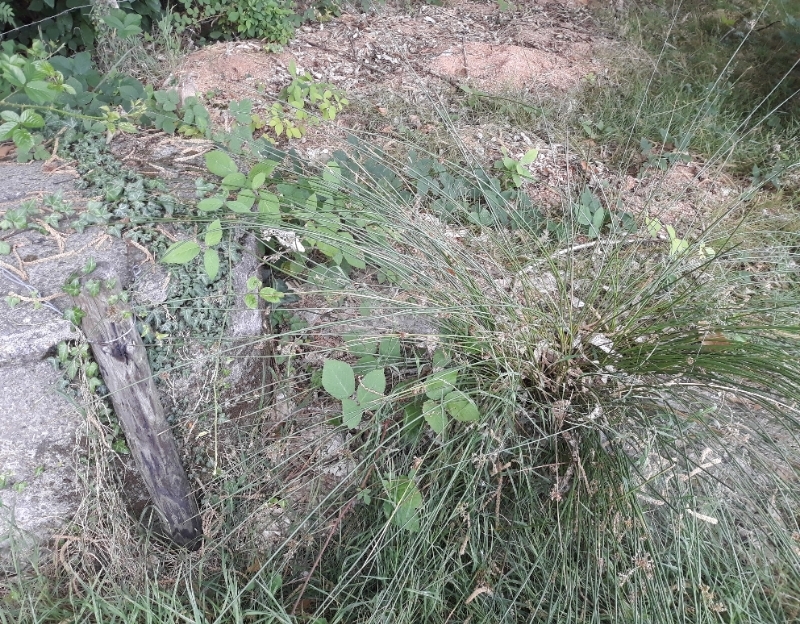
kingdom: Plantae
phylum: Tracheophyta
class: Liliopsida
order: Poales
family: Juncaceae
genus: Juncus
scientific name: Juncus effusus
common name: Soft rush
